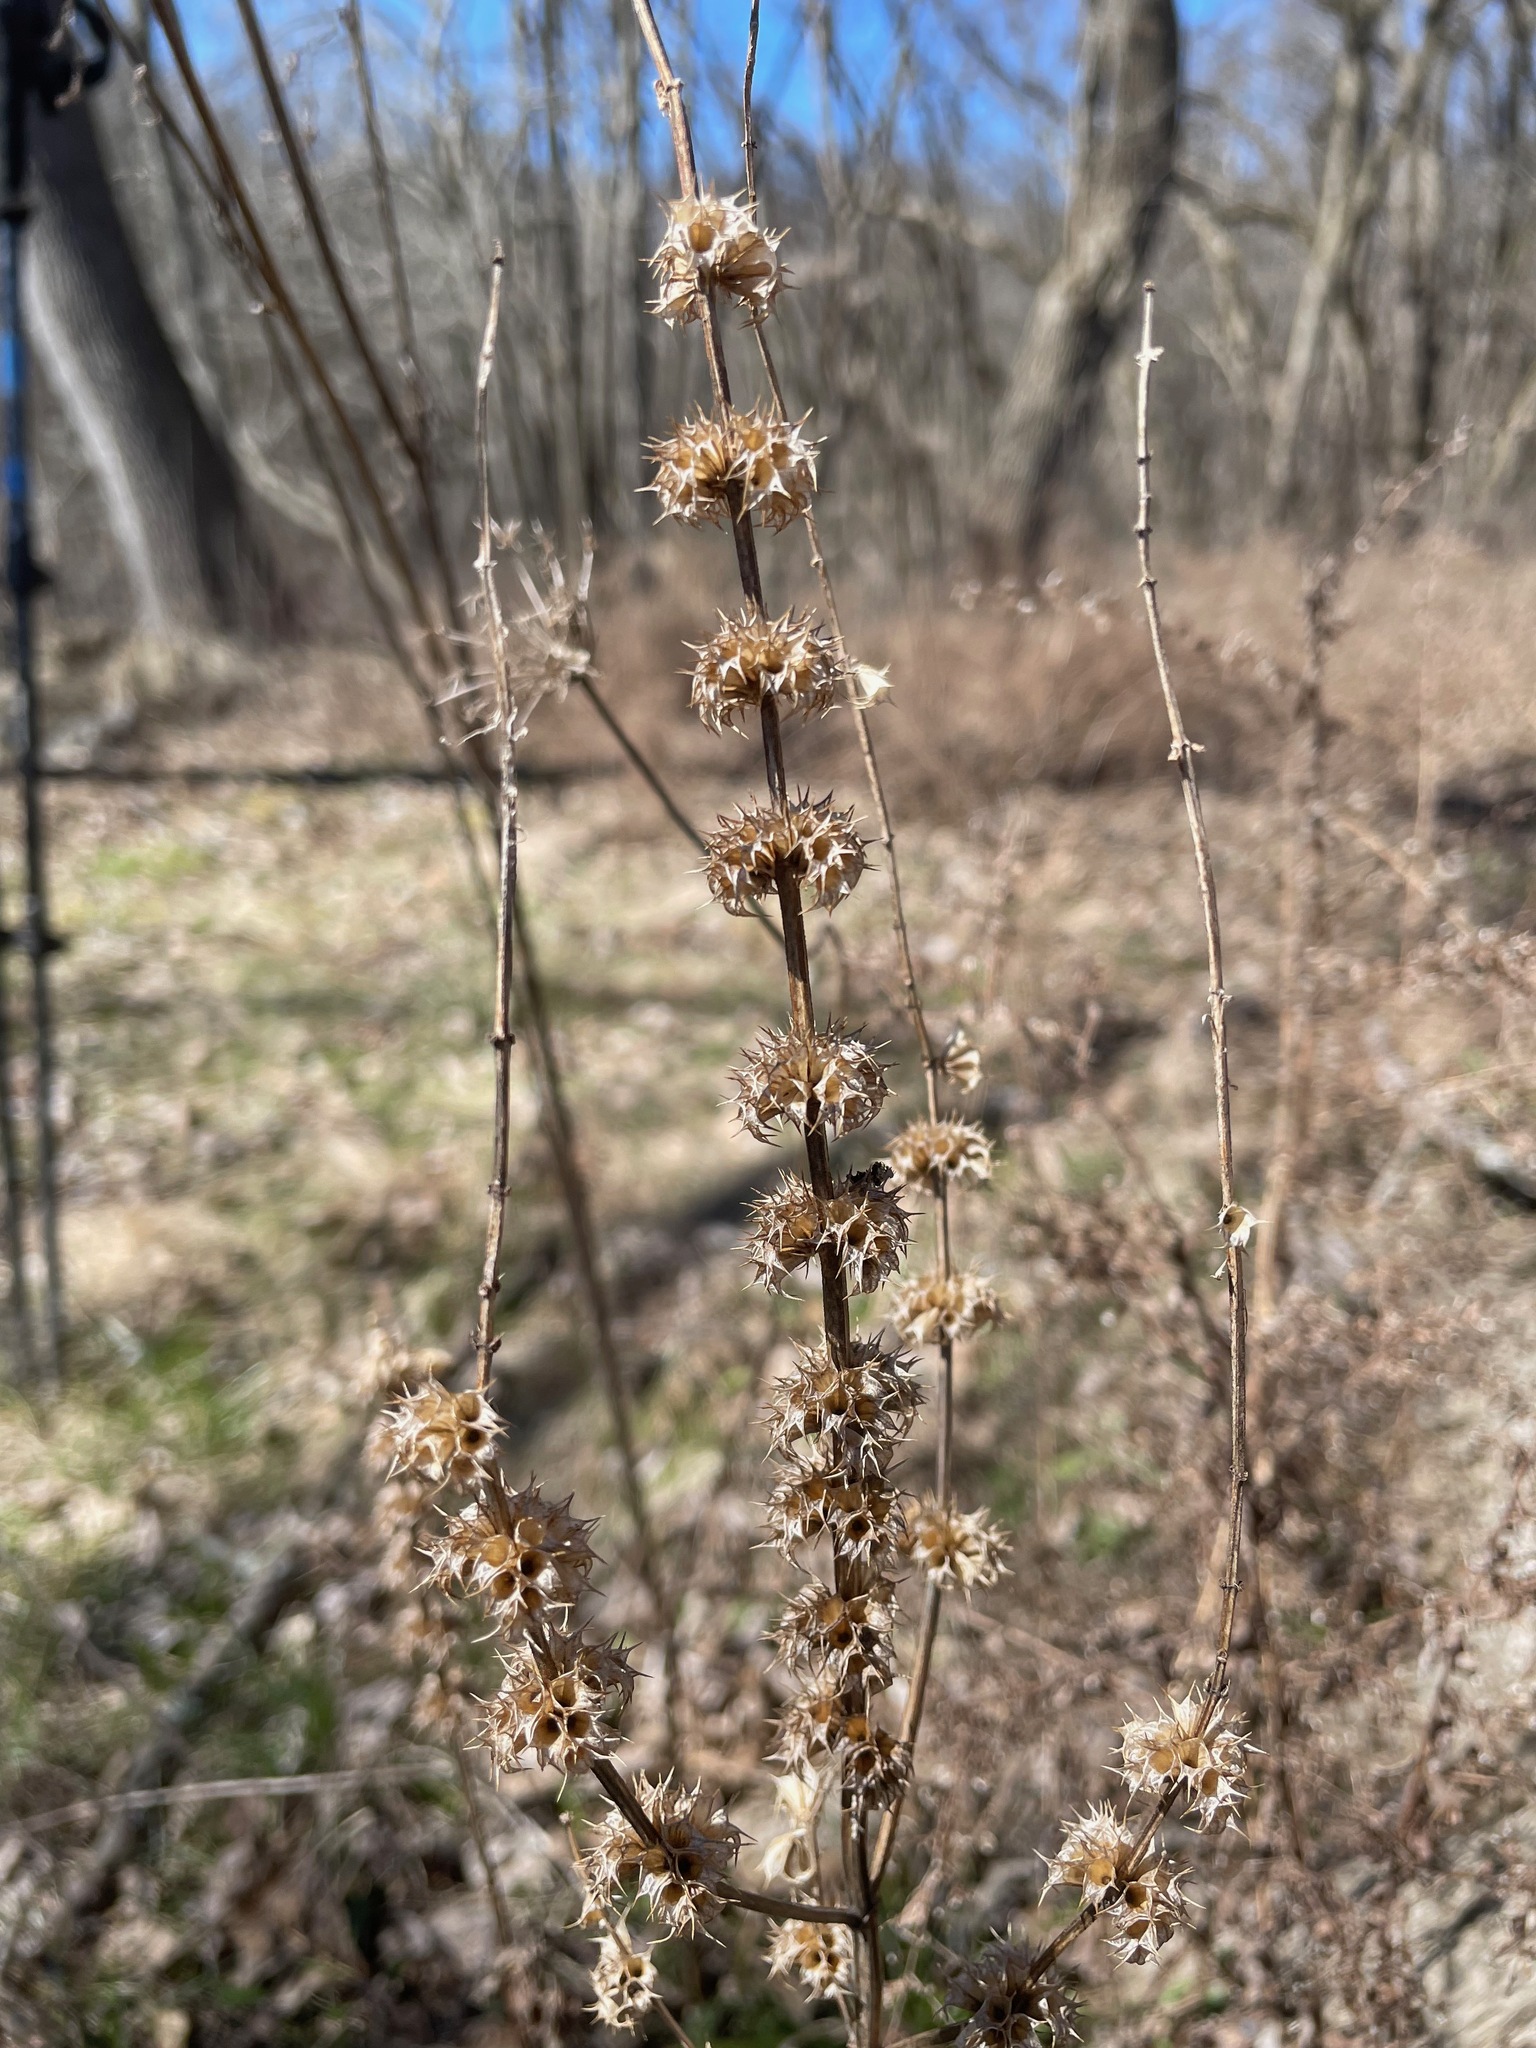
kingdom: Plantae
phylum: Tracheophyta
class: Magnoliopsida
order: Lamiales
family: Lamiaceae
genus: Leonurus
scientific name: Leonurus cardiaca
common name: Motherwort
